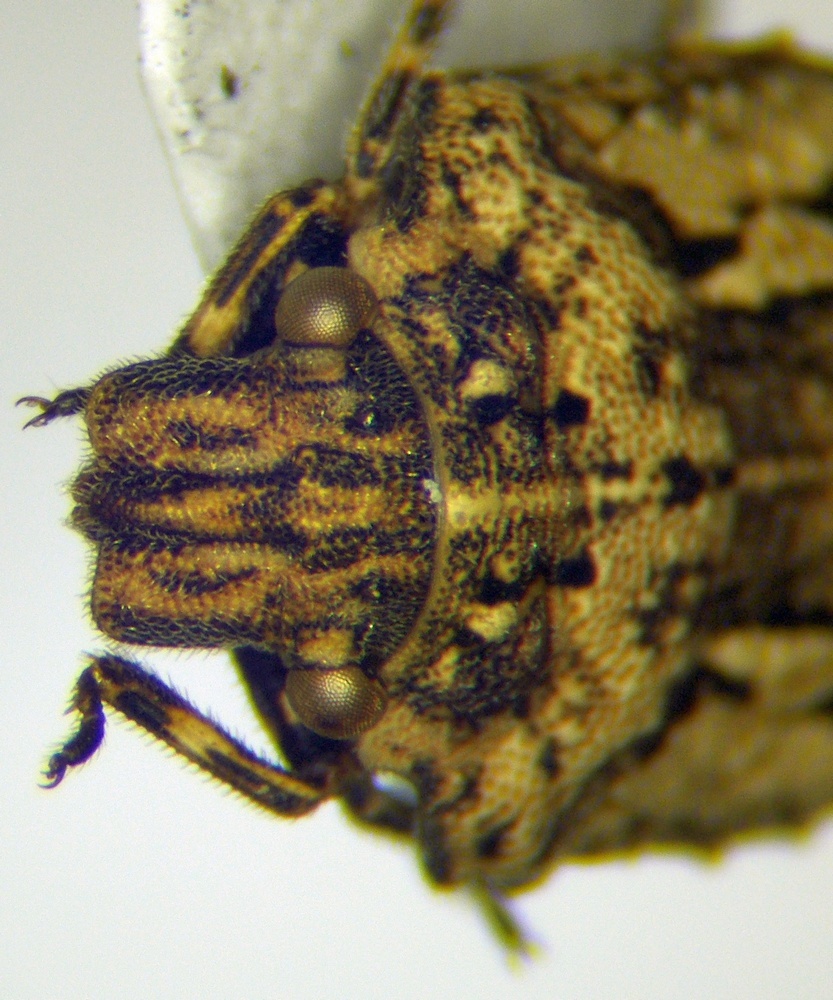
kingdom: Animalia
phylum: Arthropoda
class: Insecta
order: Hemiptera
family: Scutelleridae
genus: Phimodera
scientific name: Phimodera humeralis
